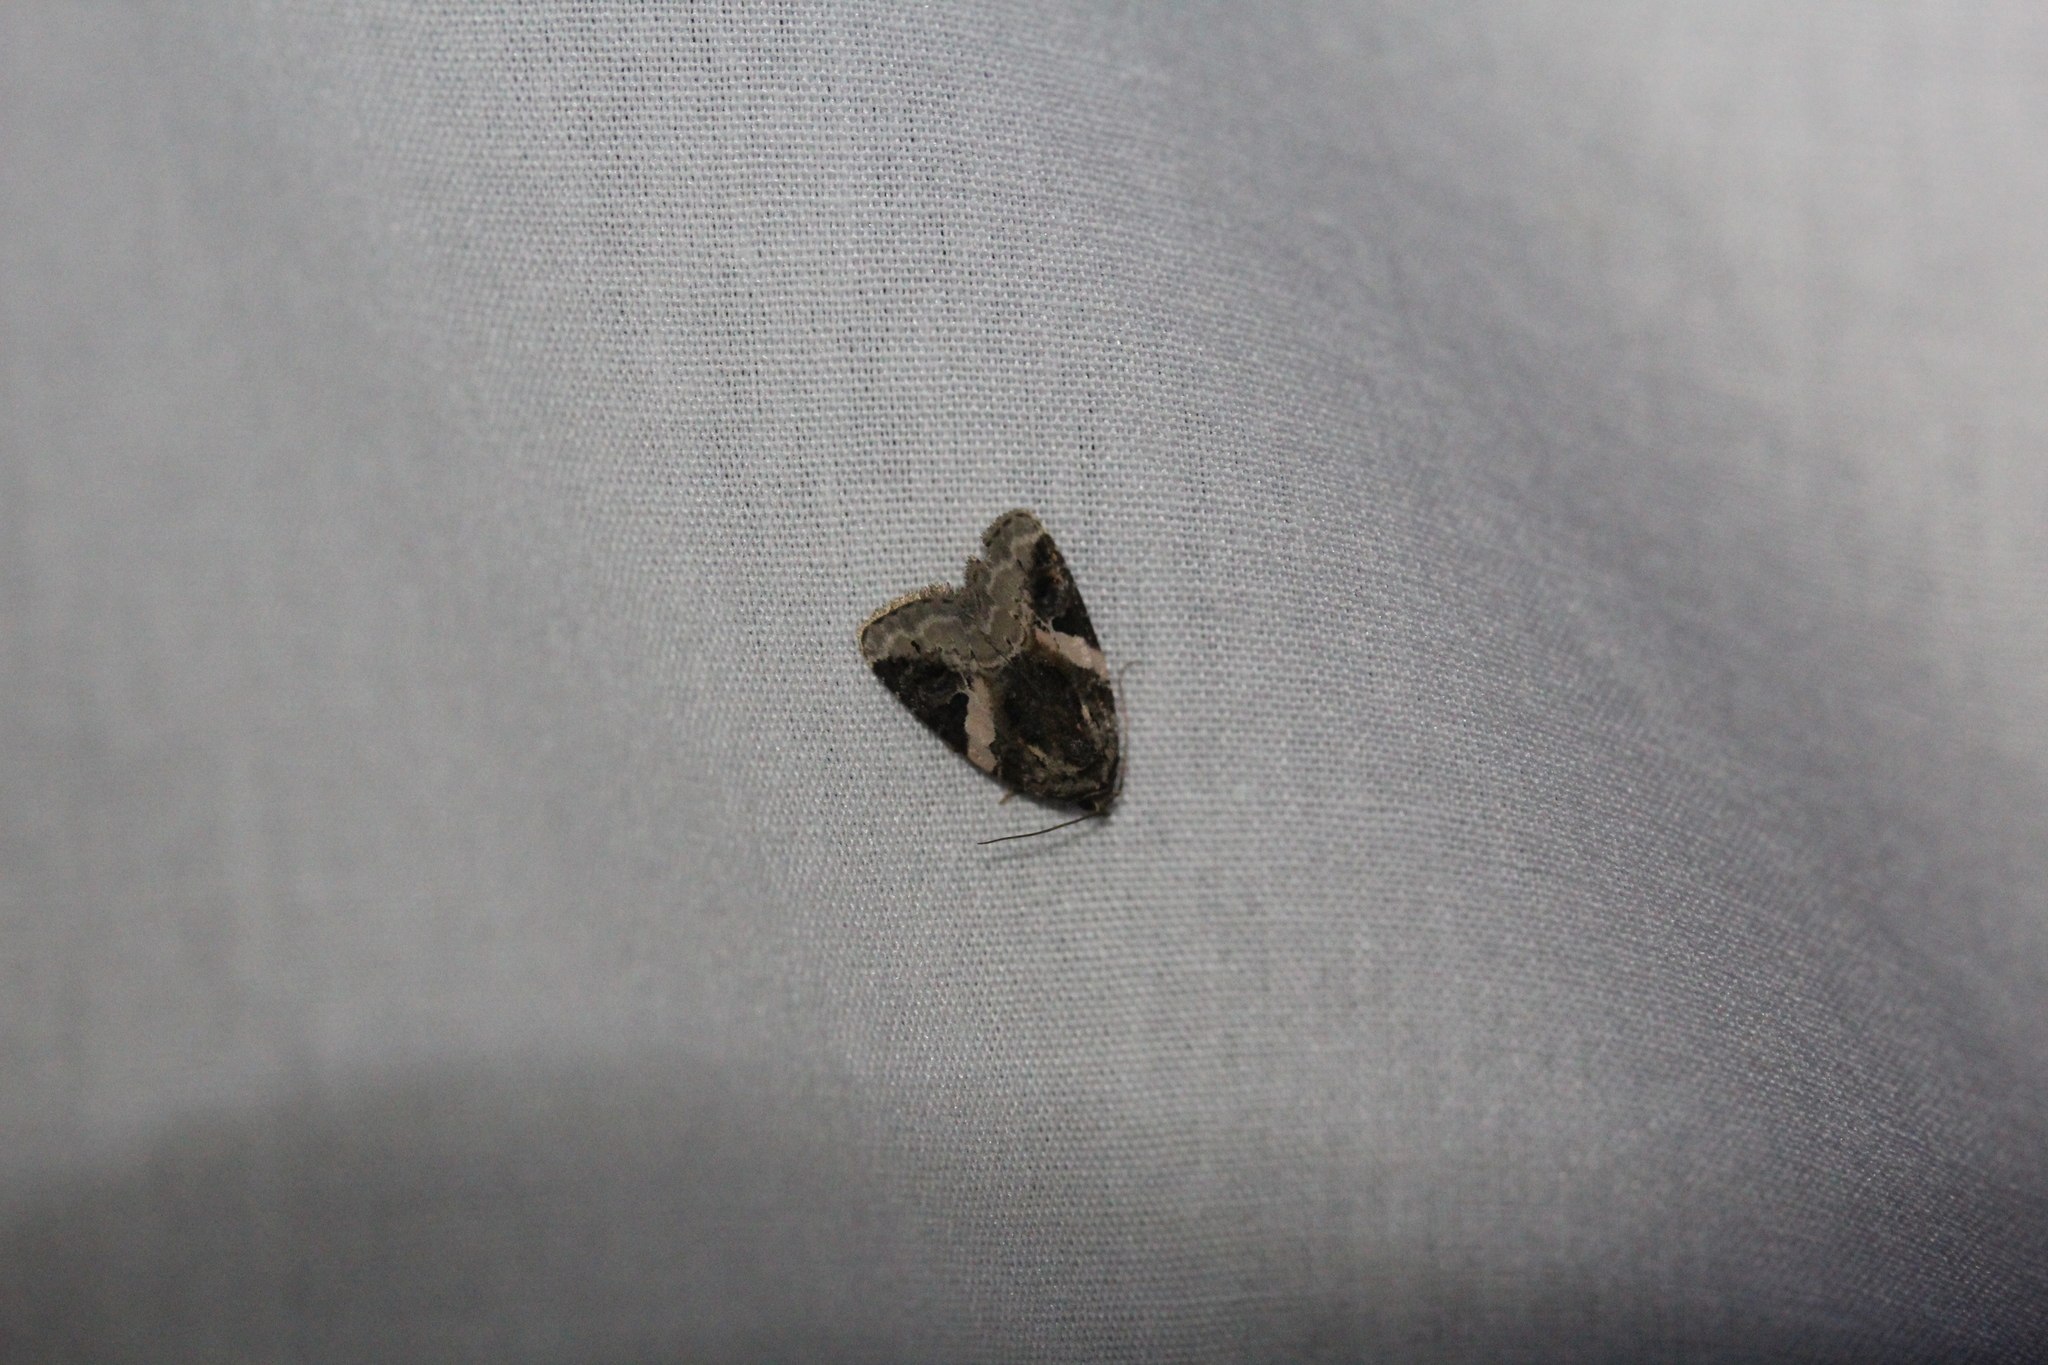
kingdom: Animalia
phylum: Arthropoda
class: Insecta
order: Lepidoptera
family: Noctuidae
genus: Pseudeustrotia
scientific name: Pseudeustrotia carneola
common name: Pink-barred lithacodia moth
